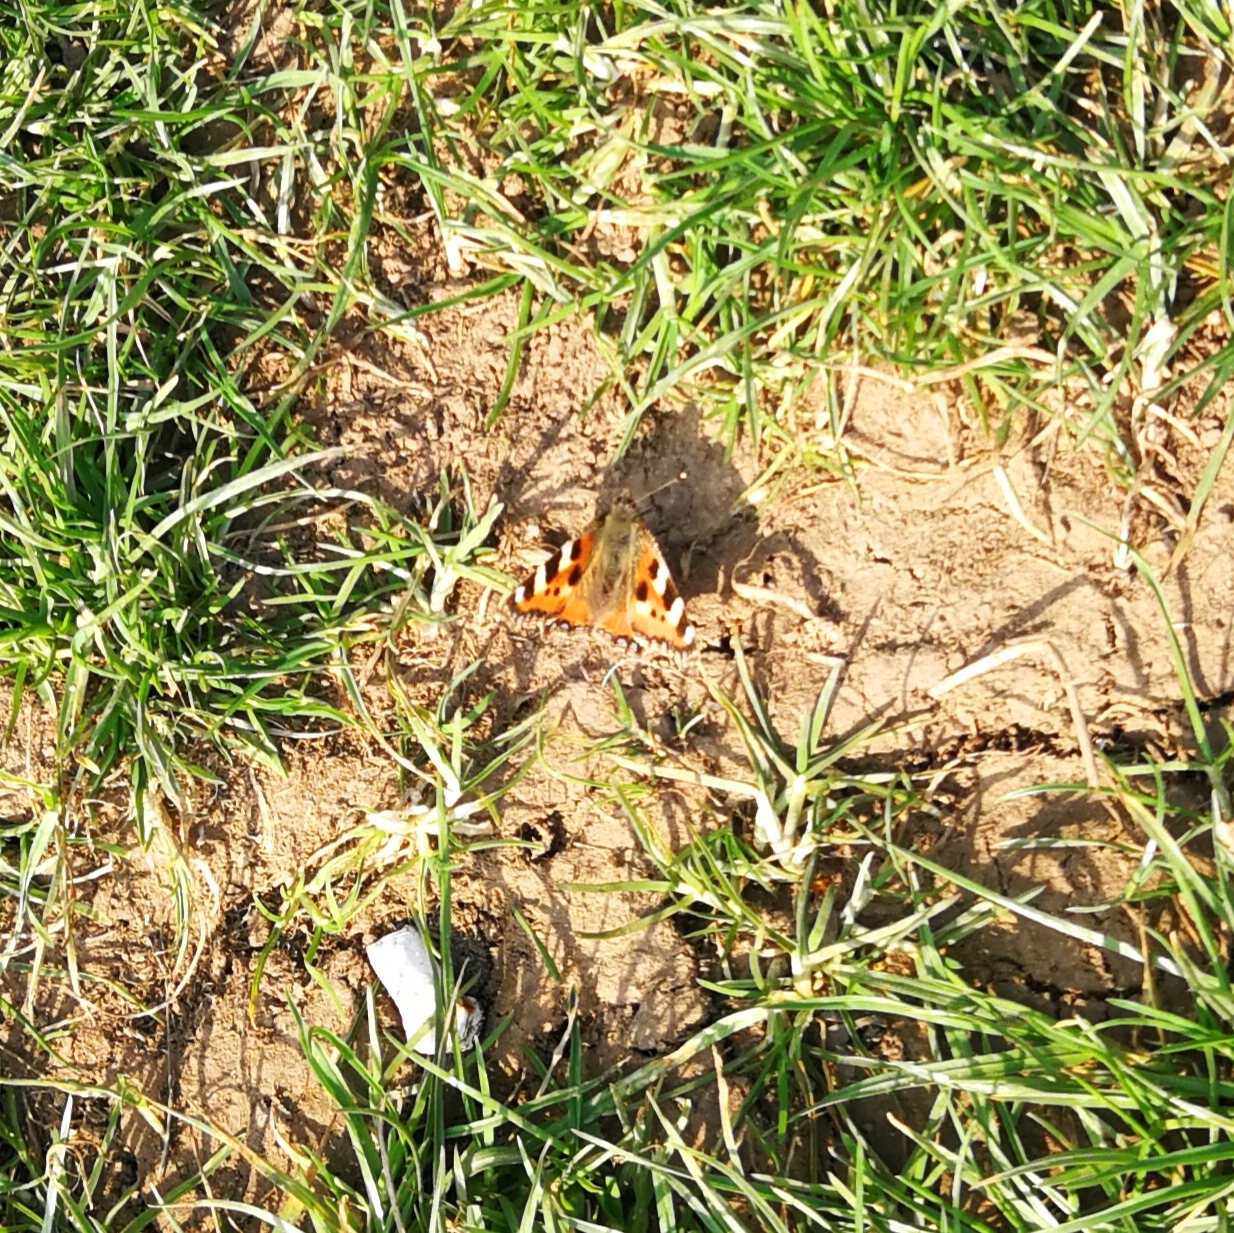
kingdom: Animalia
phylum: Arthropoda
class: Insecta
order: Lepidoptera
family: Nymphalidae
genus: Aglais
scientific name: Aglais urticae
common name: Small tortoiseshell
